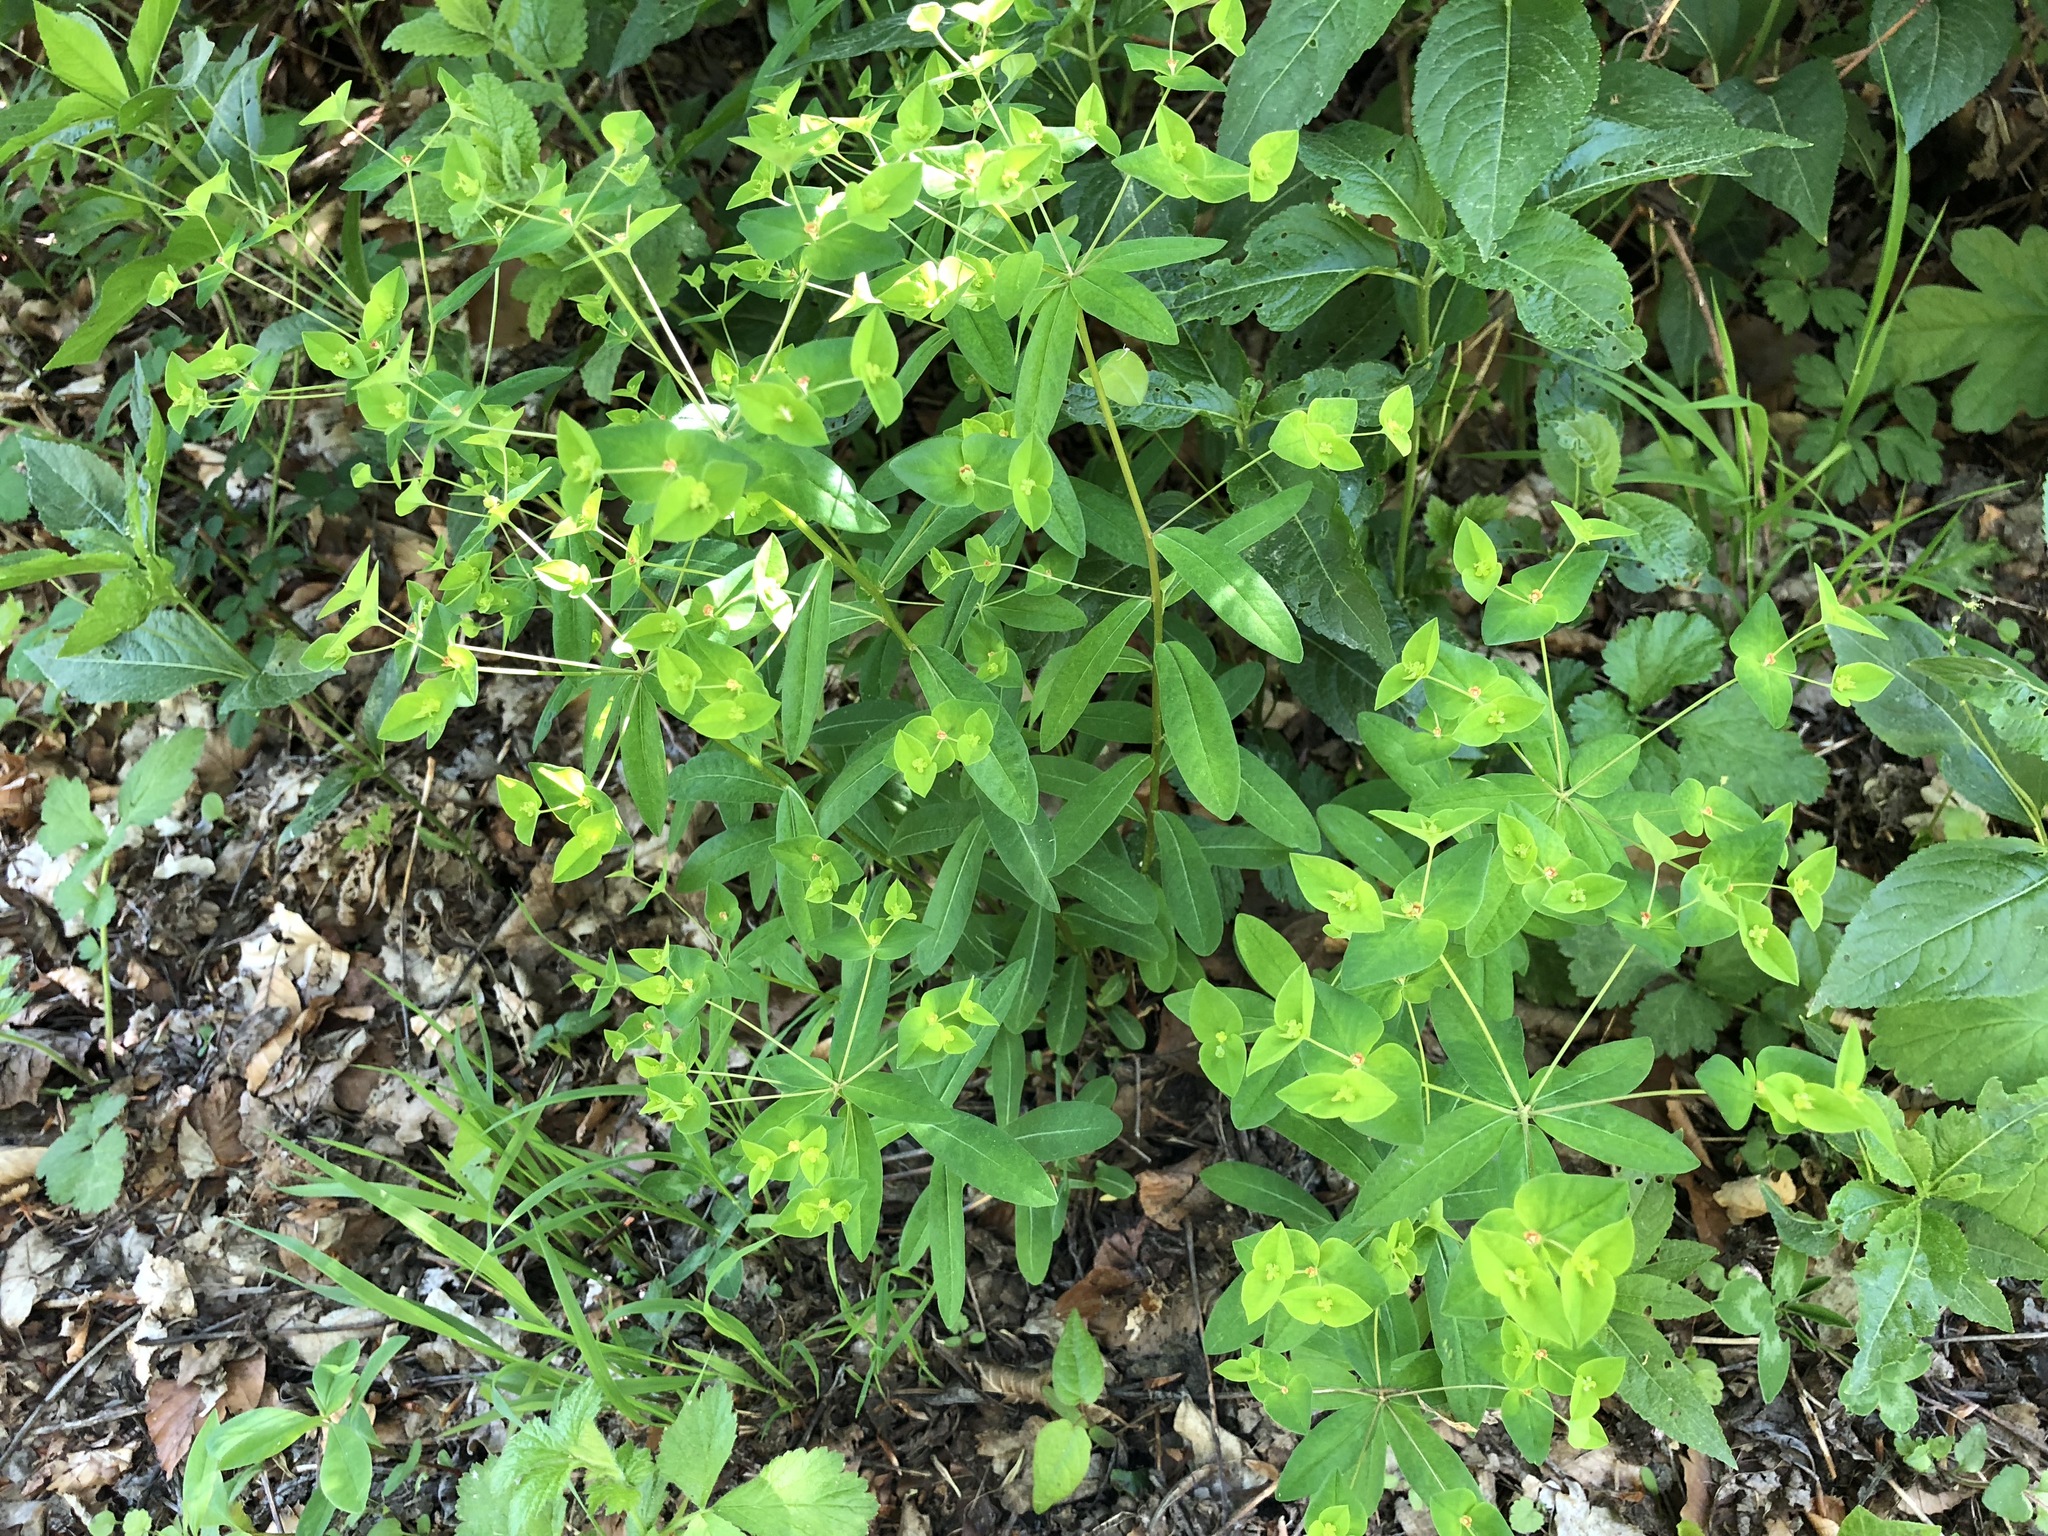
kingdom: Plantae
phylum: Tracheophyta
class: Magnoliopsida
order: Malpighiales
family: Euphorbiaceae
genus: Euphorbia
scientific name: Euphorbia dulcis
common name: Sweet spurge
